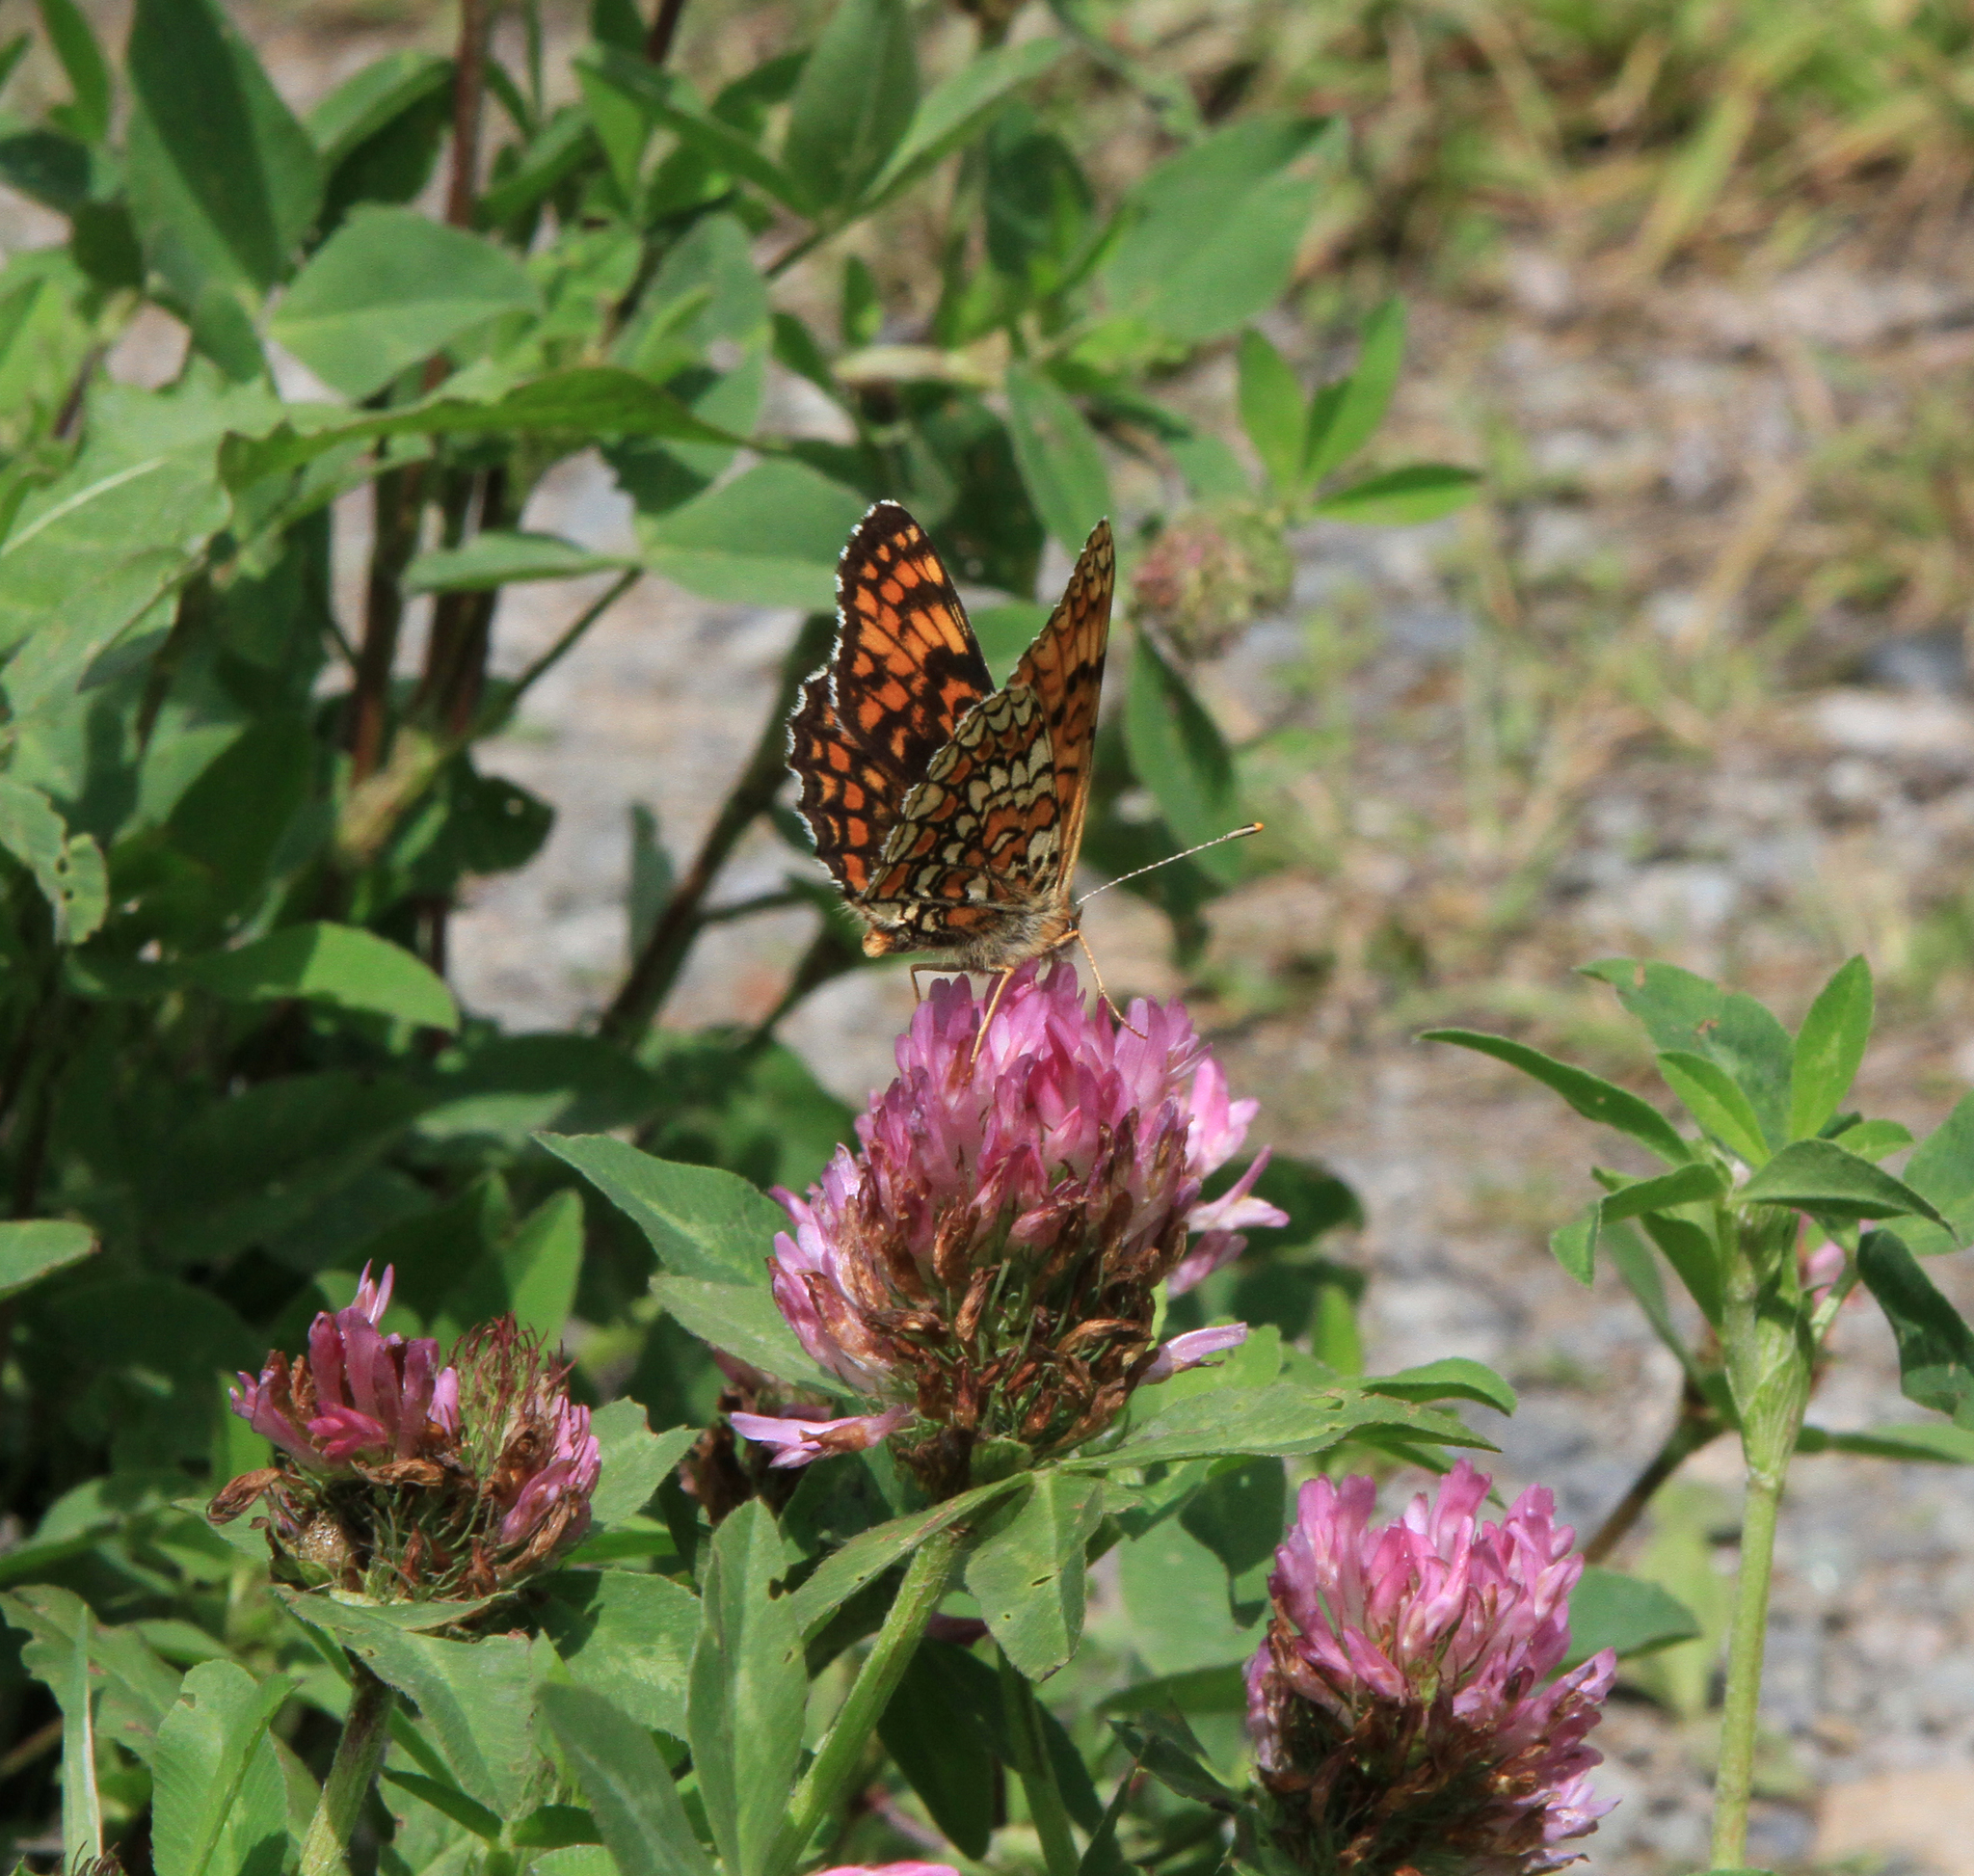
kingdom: Plantae
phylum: Tracheophyta
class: Magnoliopsida
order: Fabales
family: Fabaceae
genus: Trifolium
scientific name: Trifolium pratense
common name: Red clover
